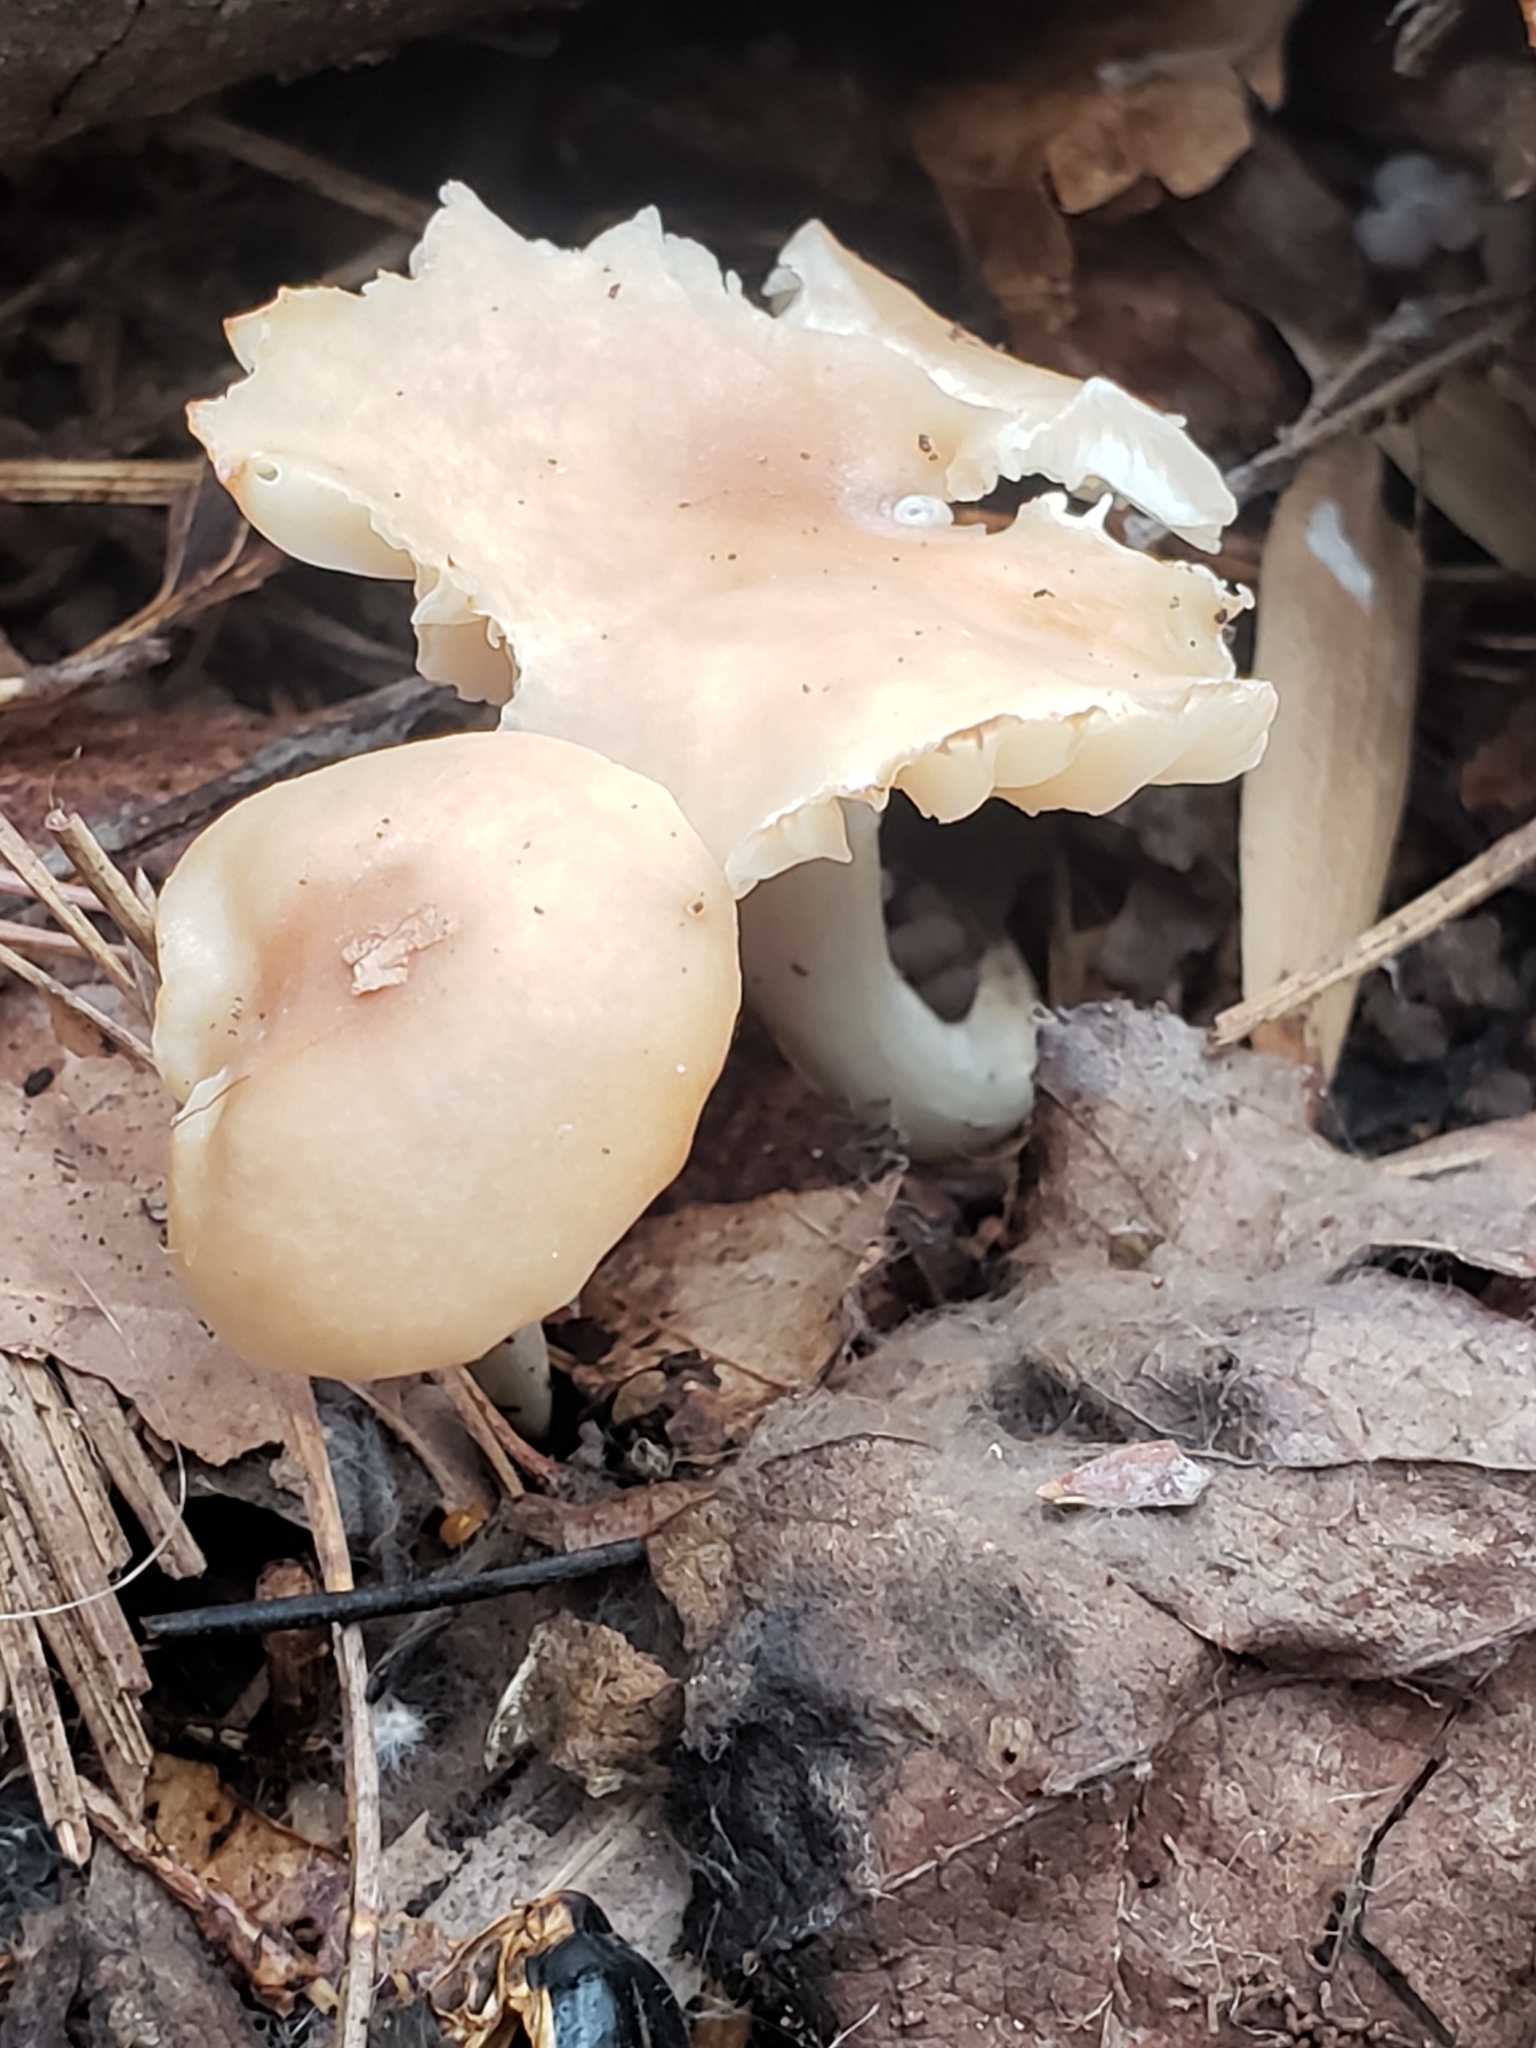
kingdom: Fungi
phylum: Basidiomycota
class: Agaricomycetes
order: Agaricales
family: Hygrophoraceae
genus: Cuphophyllus
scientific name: Cuphophyllus pratensis
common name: Meadow waxcap
